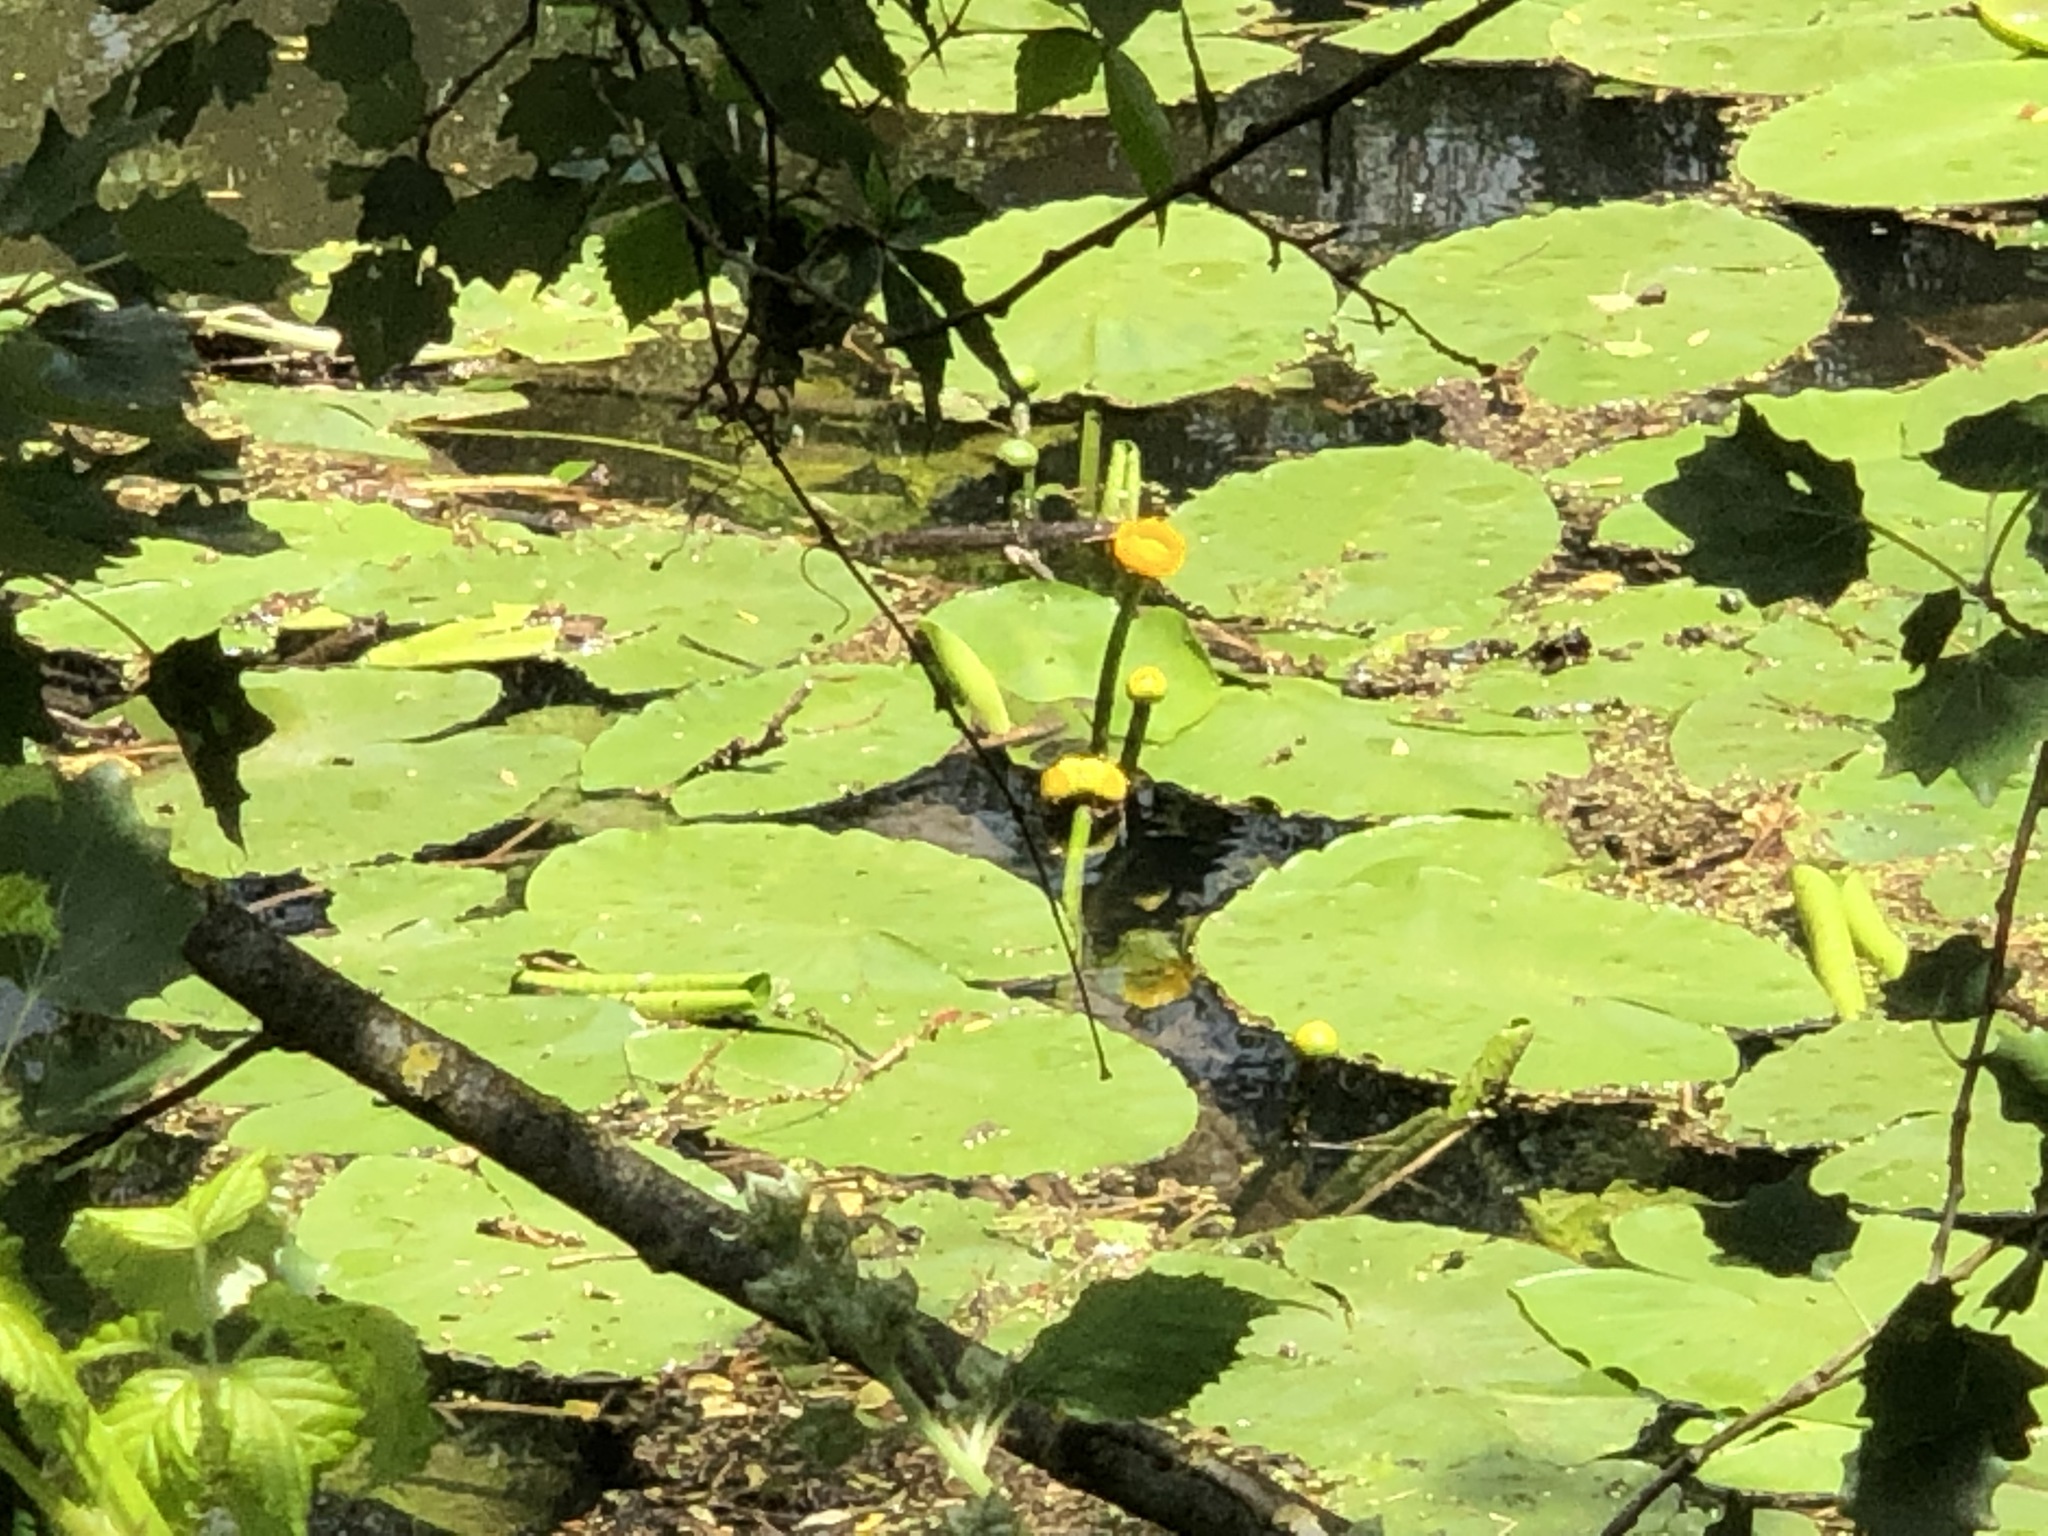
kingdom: Plantae
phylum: Tracheophyta
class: Magnoliopsida
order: Nymphaeales
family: Nymphaeaceae
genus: Nuphar
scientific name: Nuphar lutea
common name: Yellow water-lily
